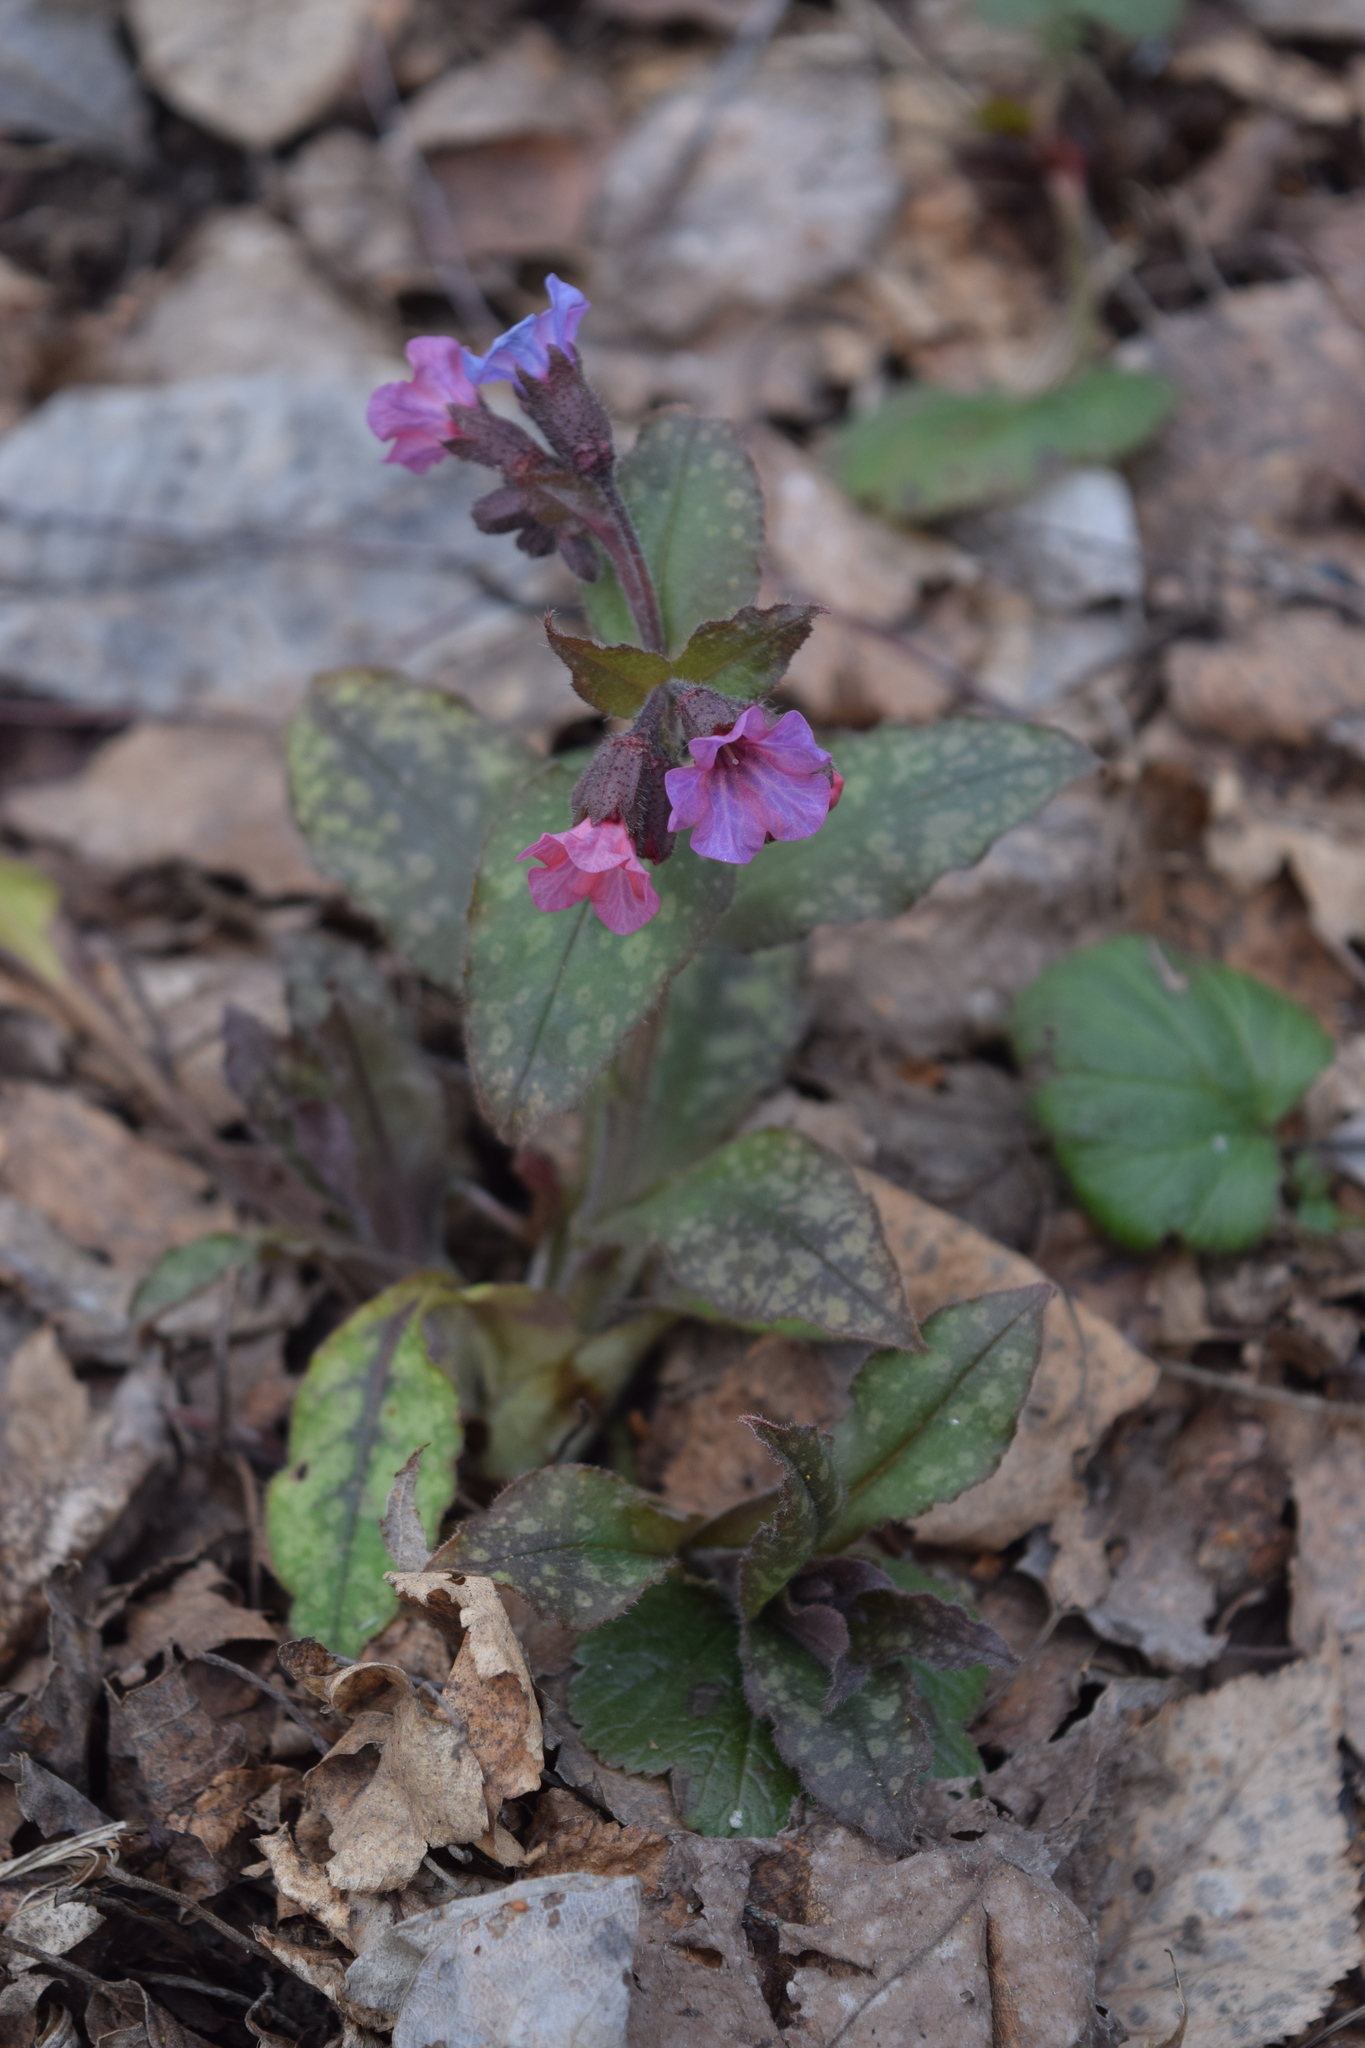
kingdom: Plantae
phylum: Tracheophyta
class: Magnoliopsida
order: Boraginales
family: Boraginaceae
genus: Pulmonaria
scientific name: Pulmonaria obscura
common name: Suffolk lungwort
